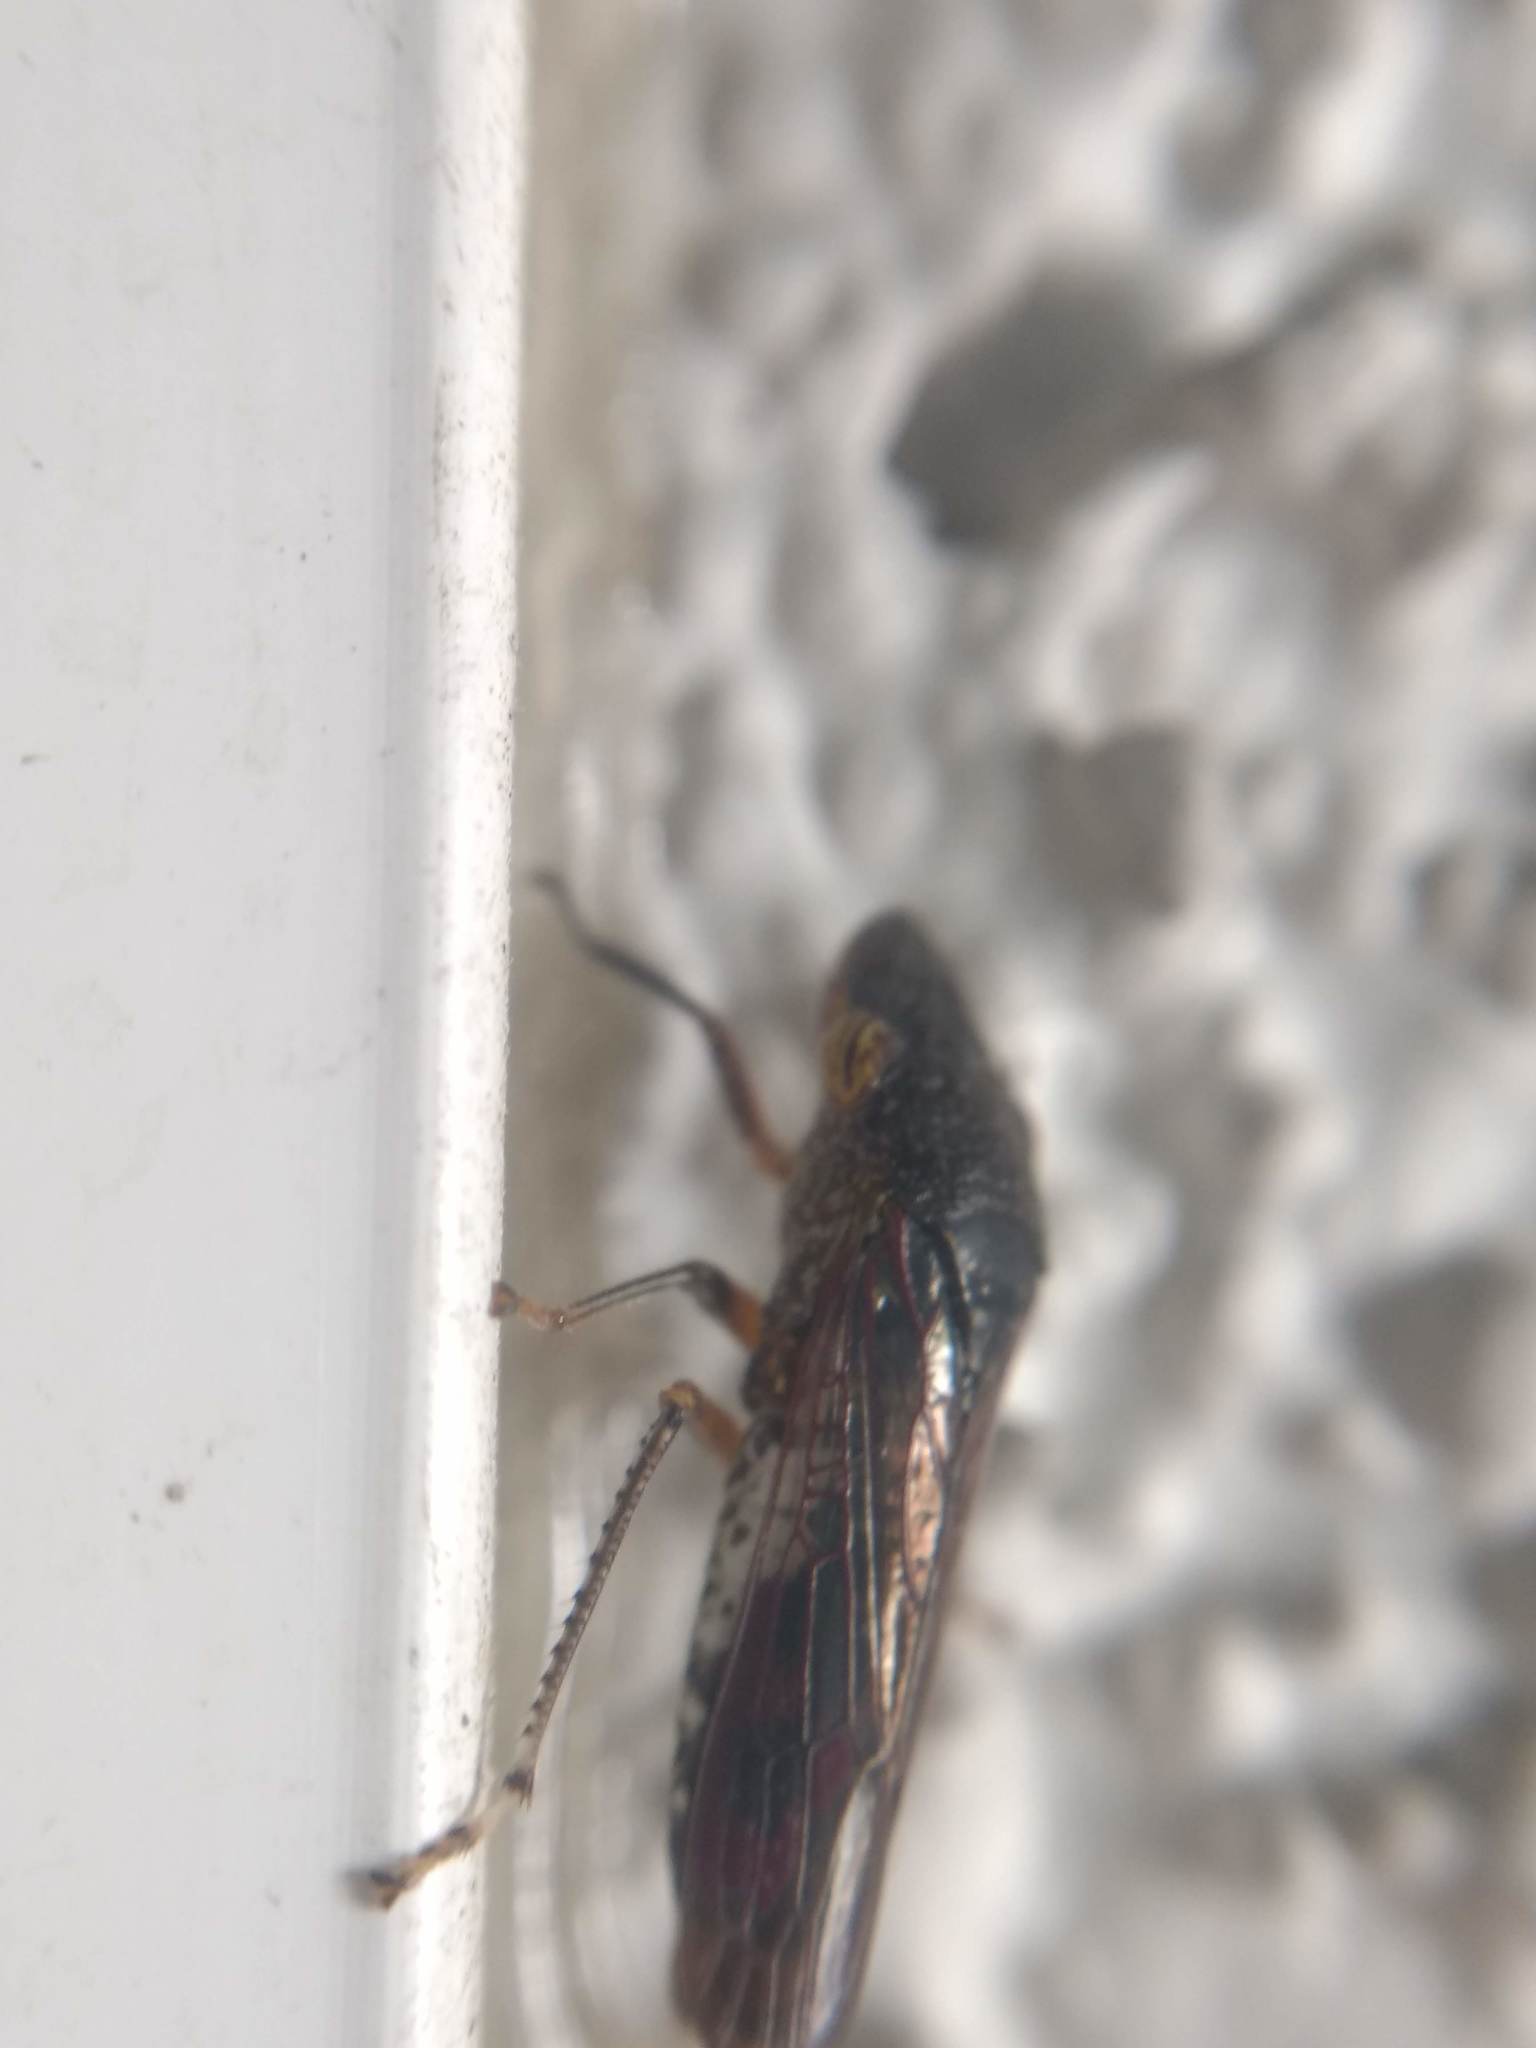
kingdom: Animalia
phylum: Arthropoda
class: Insecta
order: Hemiptera
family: Cicadellidae
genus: Homalodisca
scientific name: Homalodisca vitripennis
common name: Glassy-winged sharpshooter
